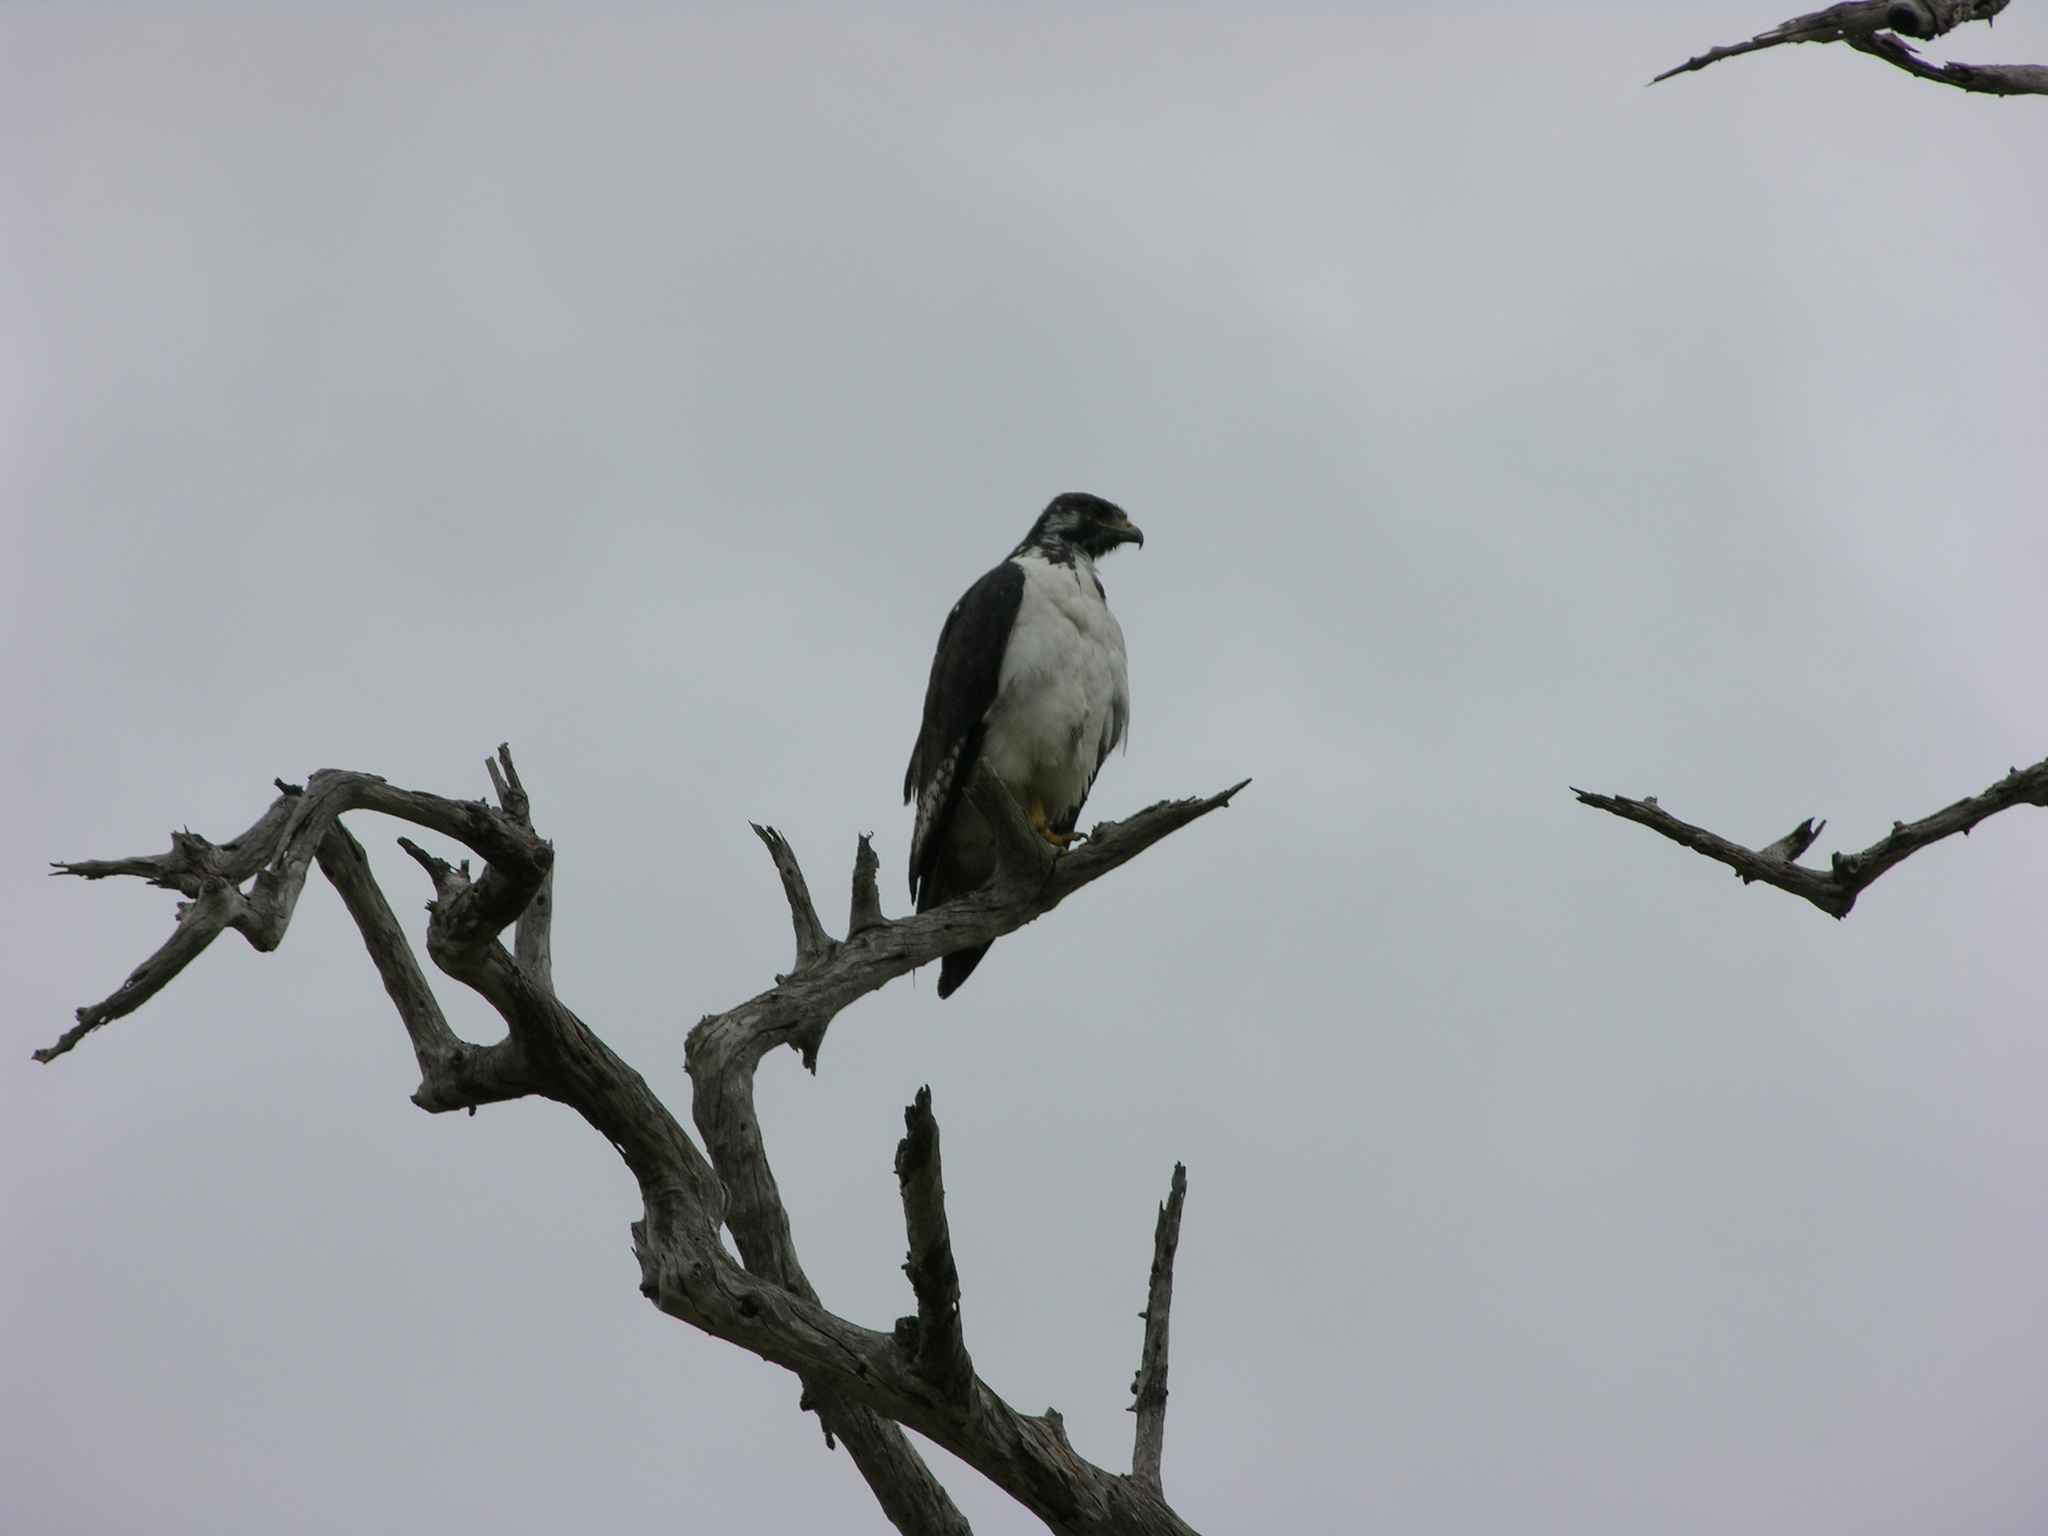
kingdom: Animalia
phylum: Chordata
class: Aves
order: Accipitriformes
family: Accipitridae
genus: Buteo
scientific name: Buteo augur
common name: Augur buzzard
